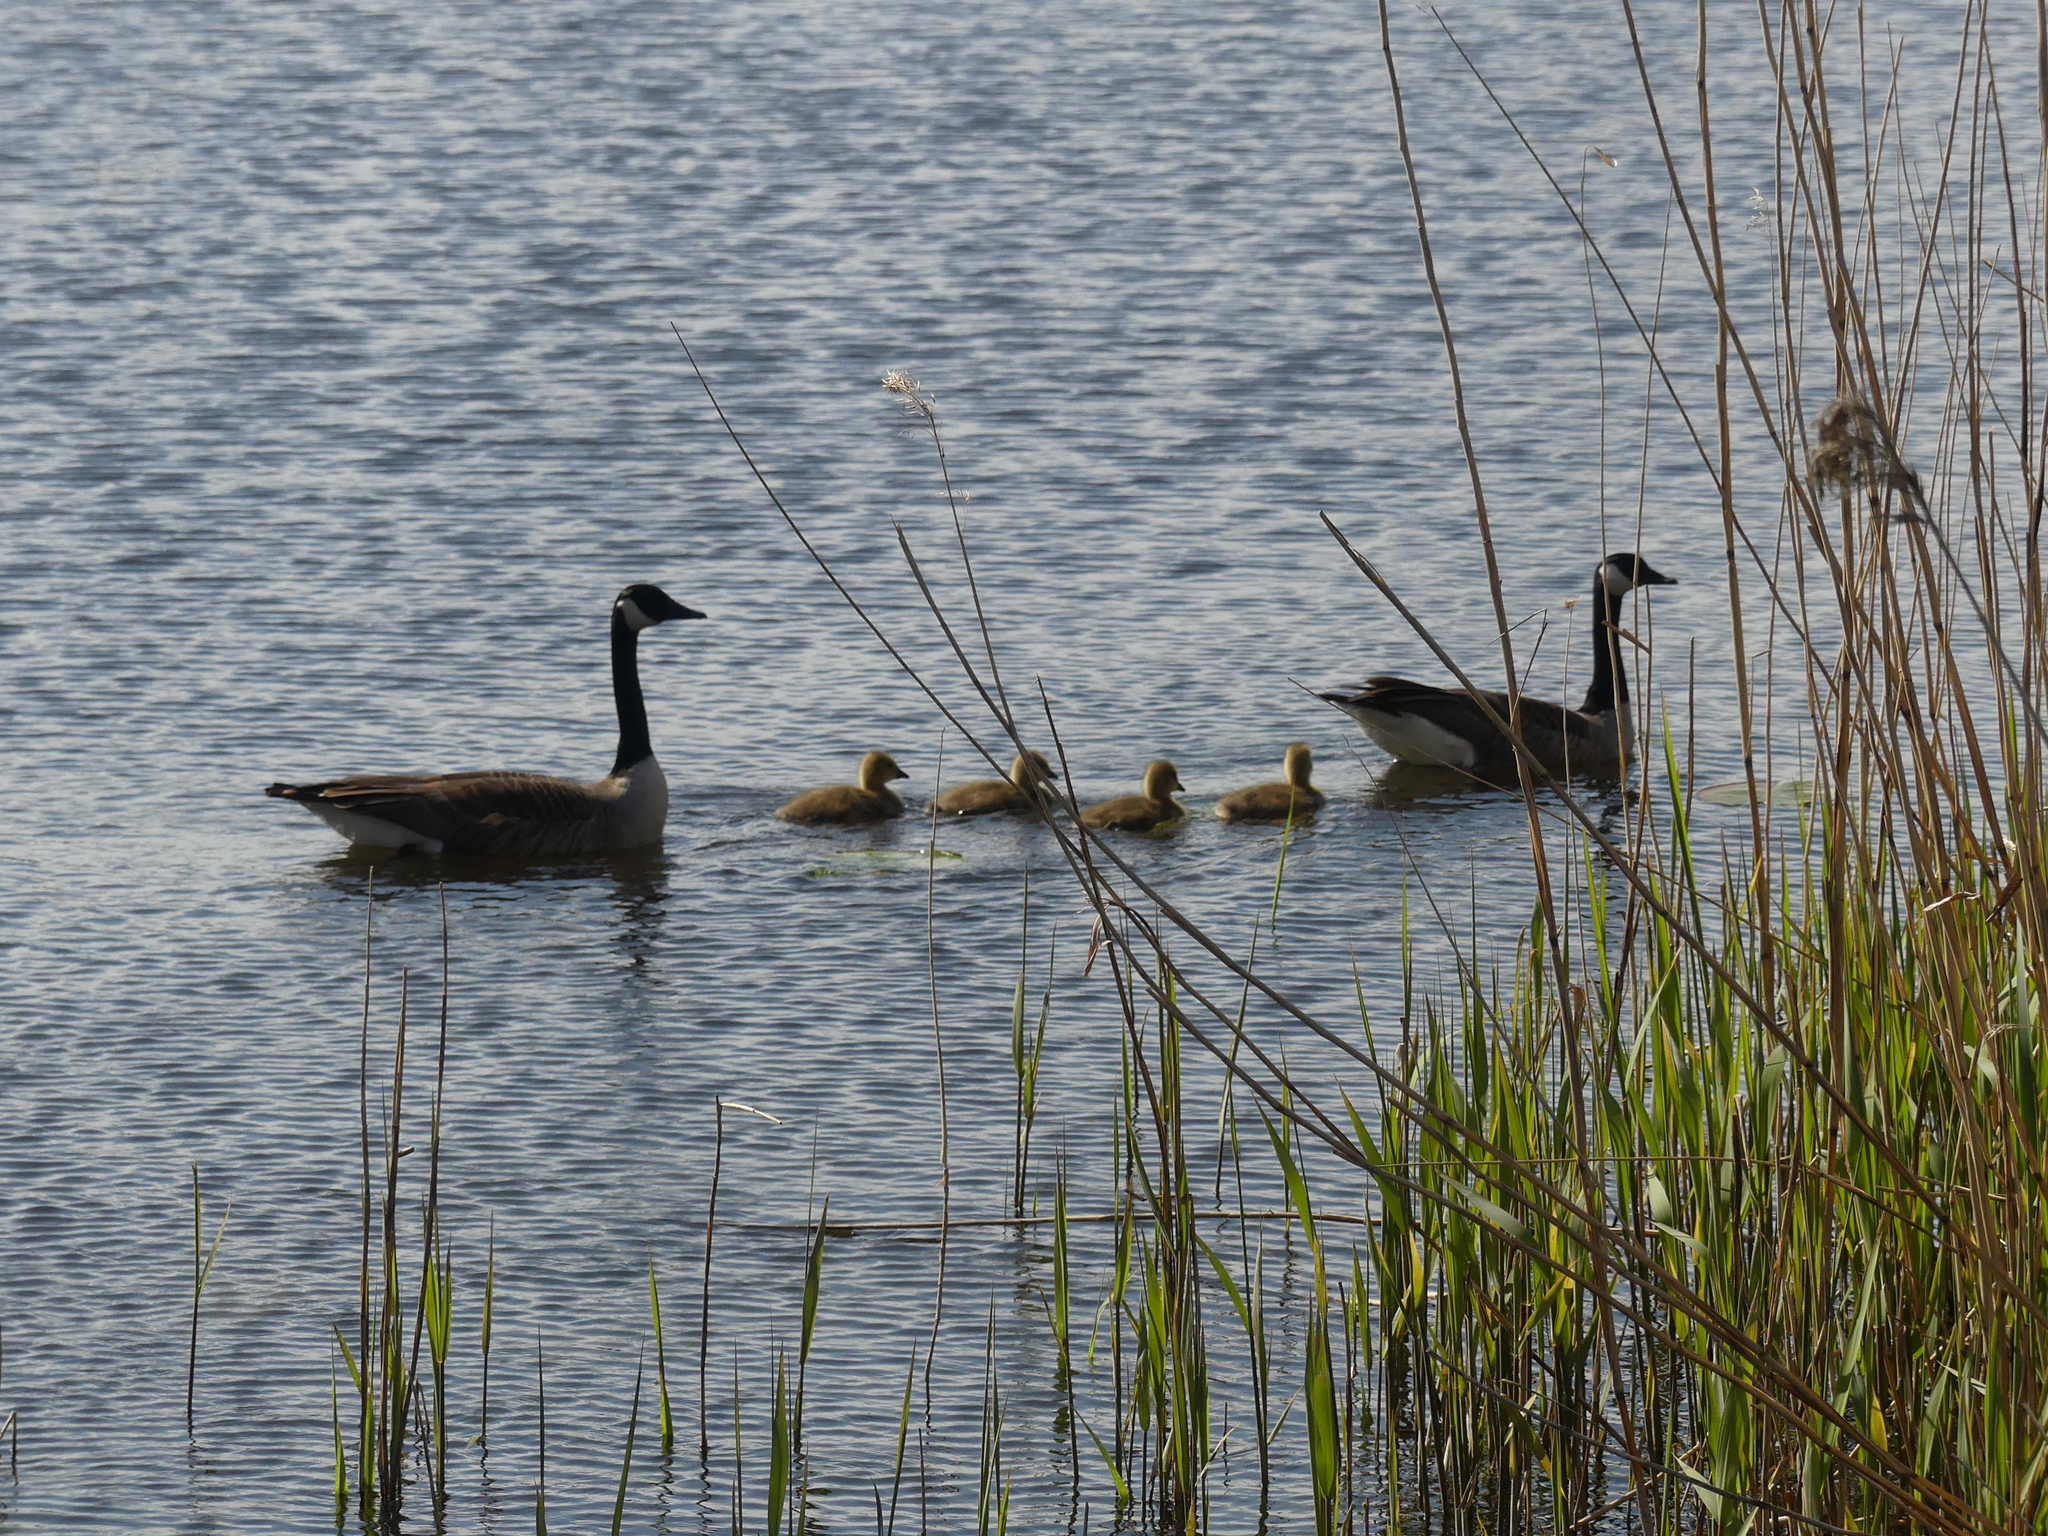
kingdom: Animalia
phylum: Chordata
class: Aves
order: Anseriformes
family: Anatidae
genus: Branta
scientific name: Branta canadensis
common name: Canada goose
